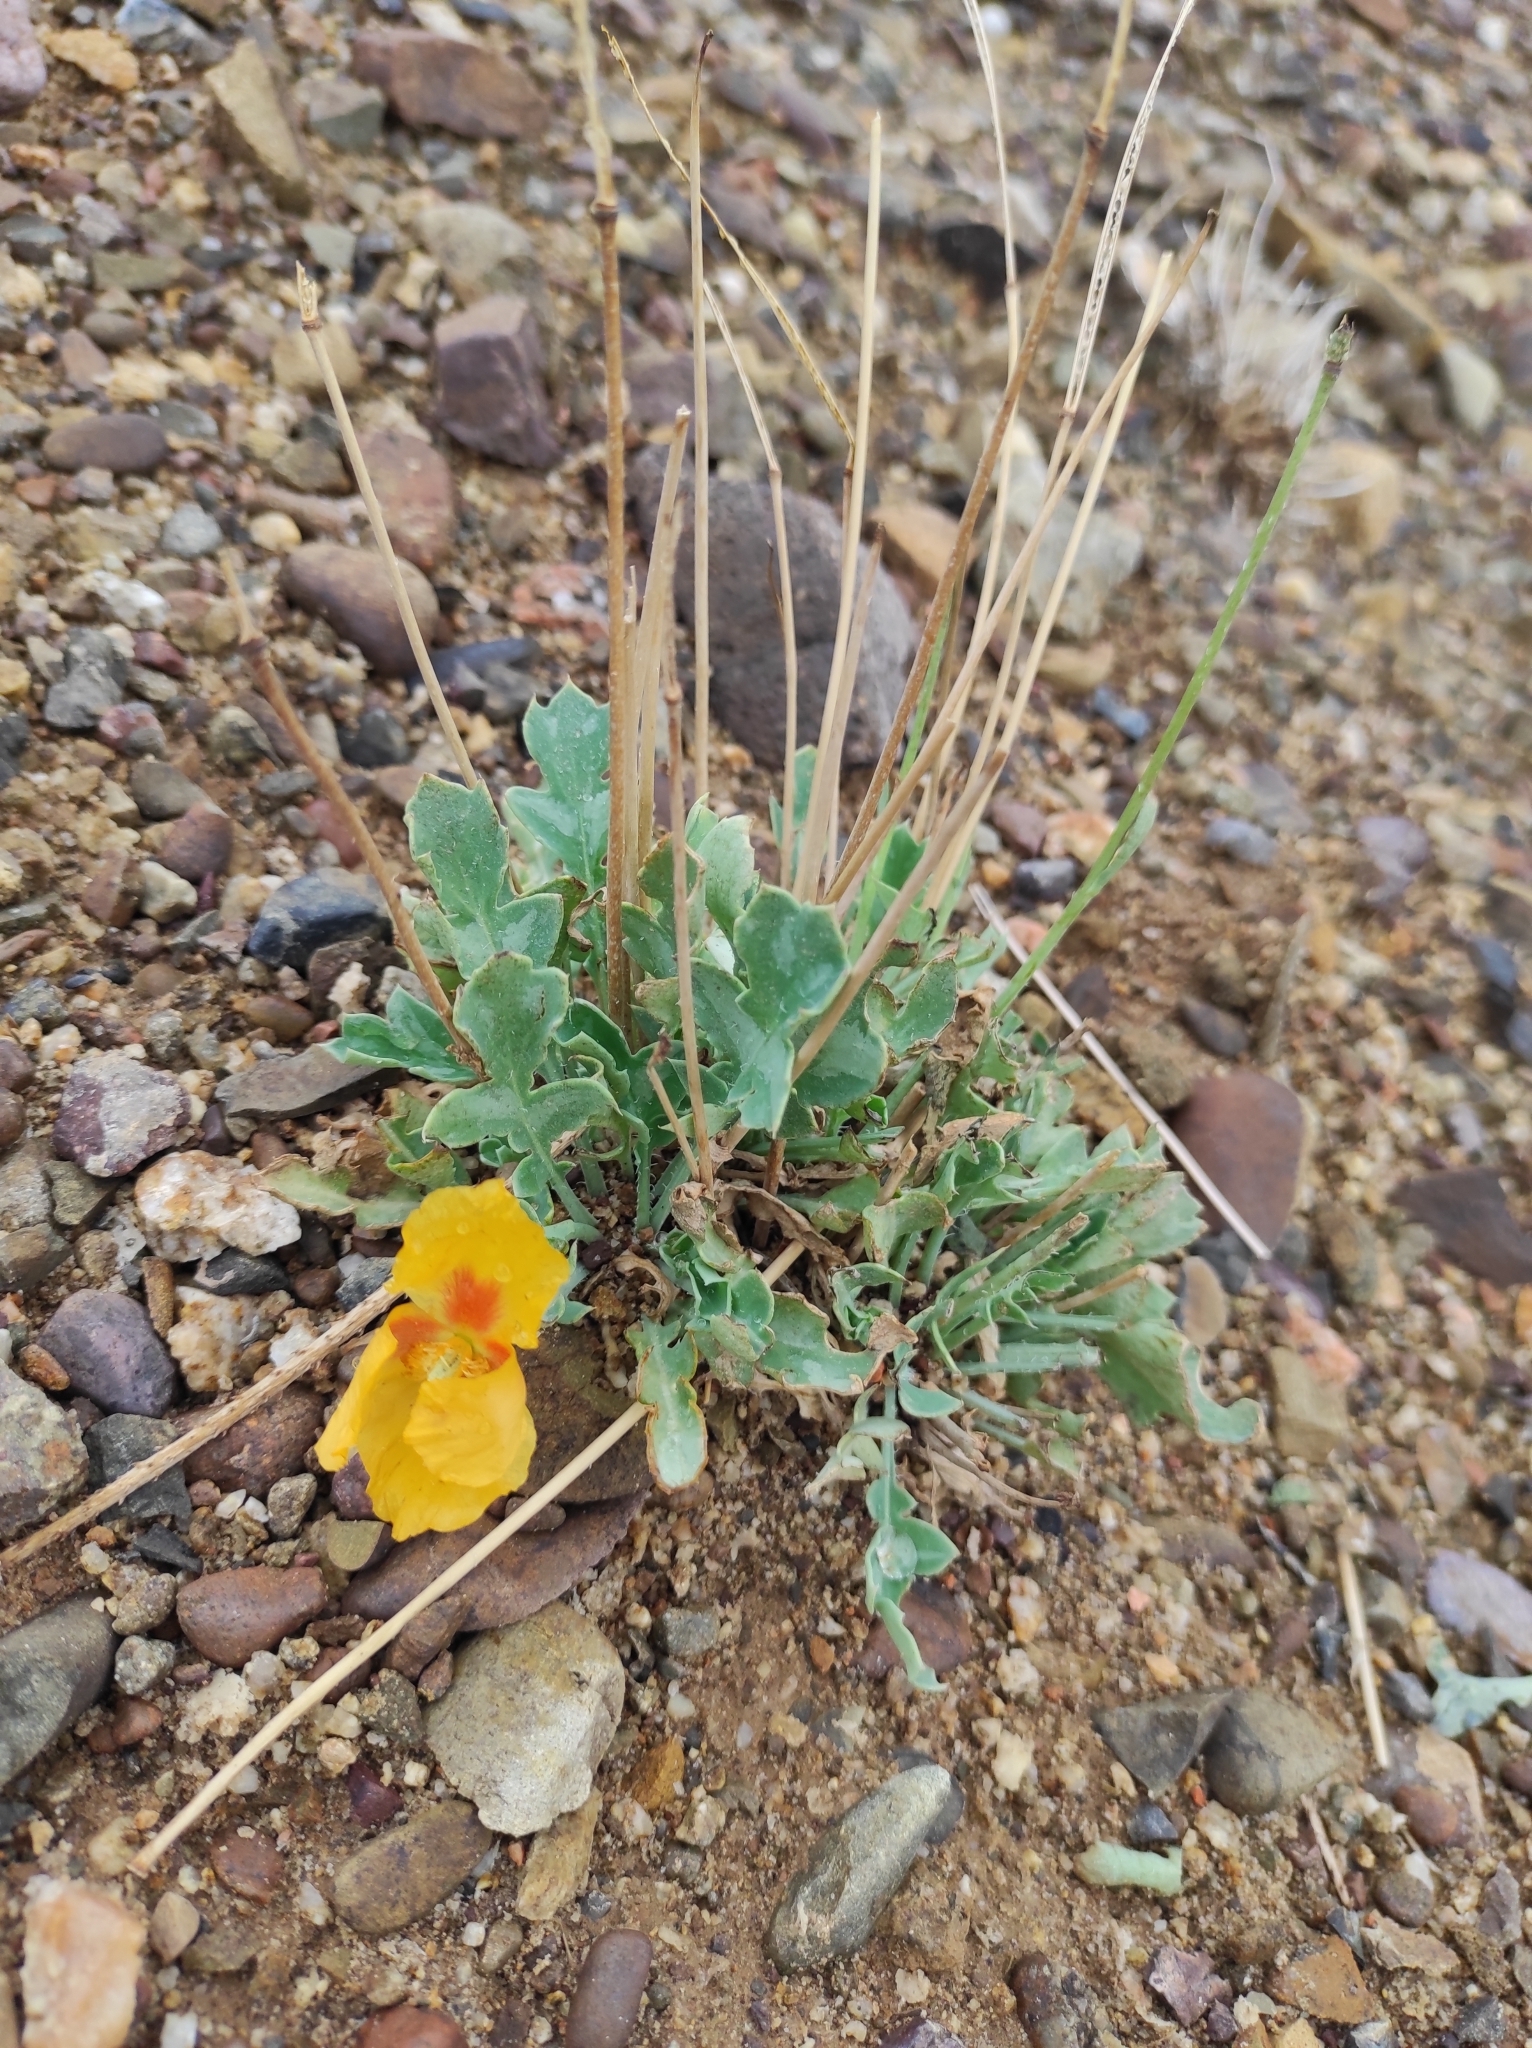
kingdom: Plantae
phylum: Tracheophyta
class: Magnoliopsida
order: Ranunculales
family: Papaveraceae
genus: Glaucium
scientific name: Glaucium fimbrilligerum
